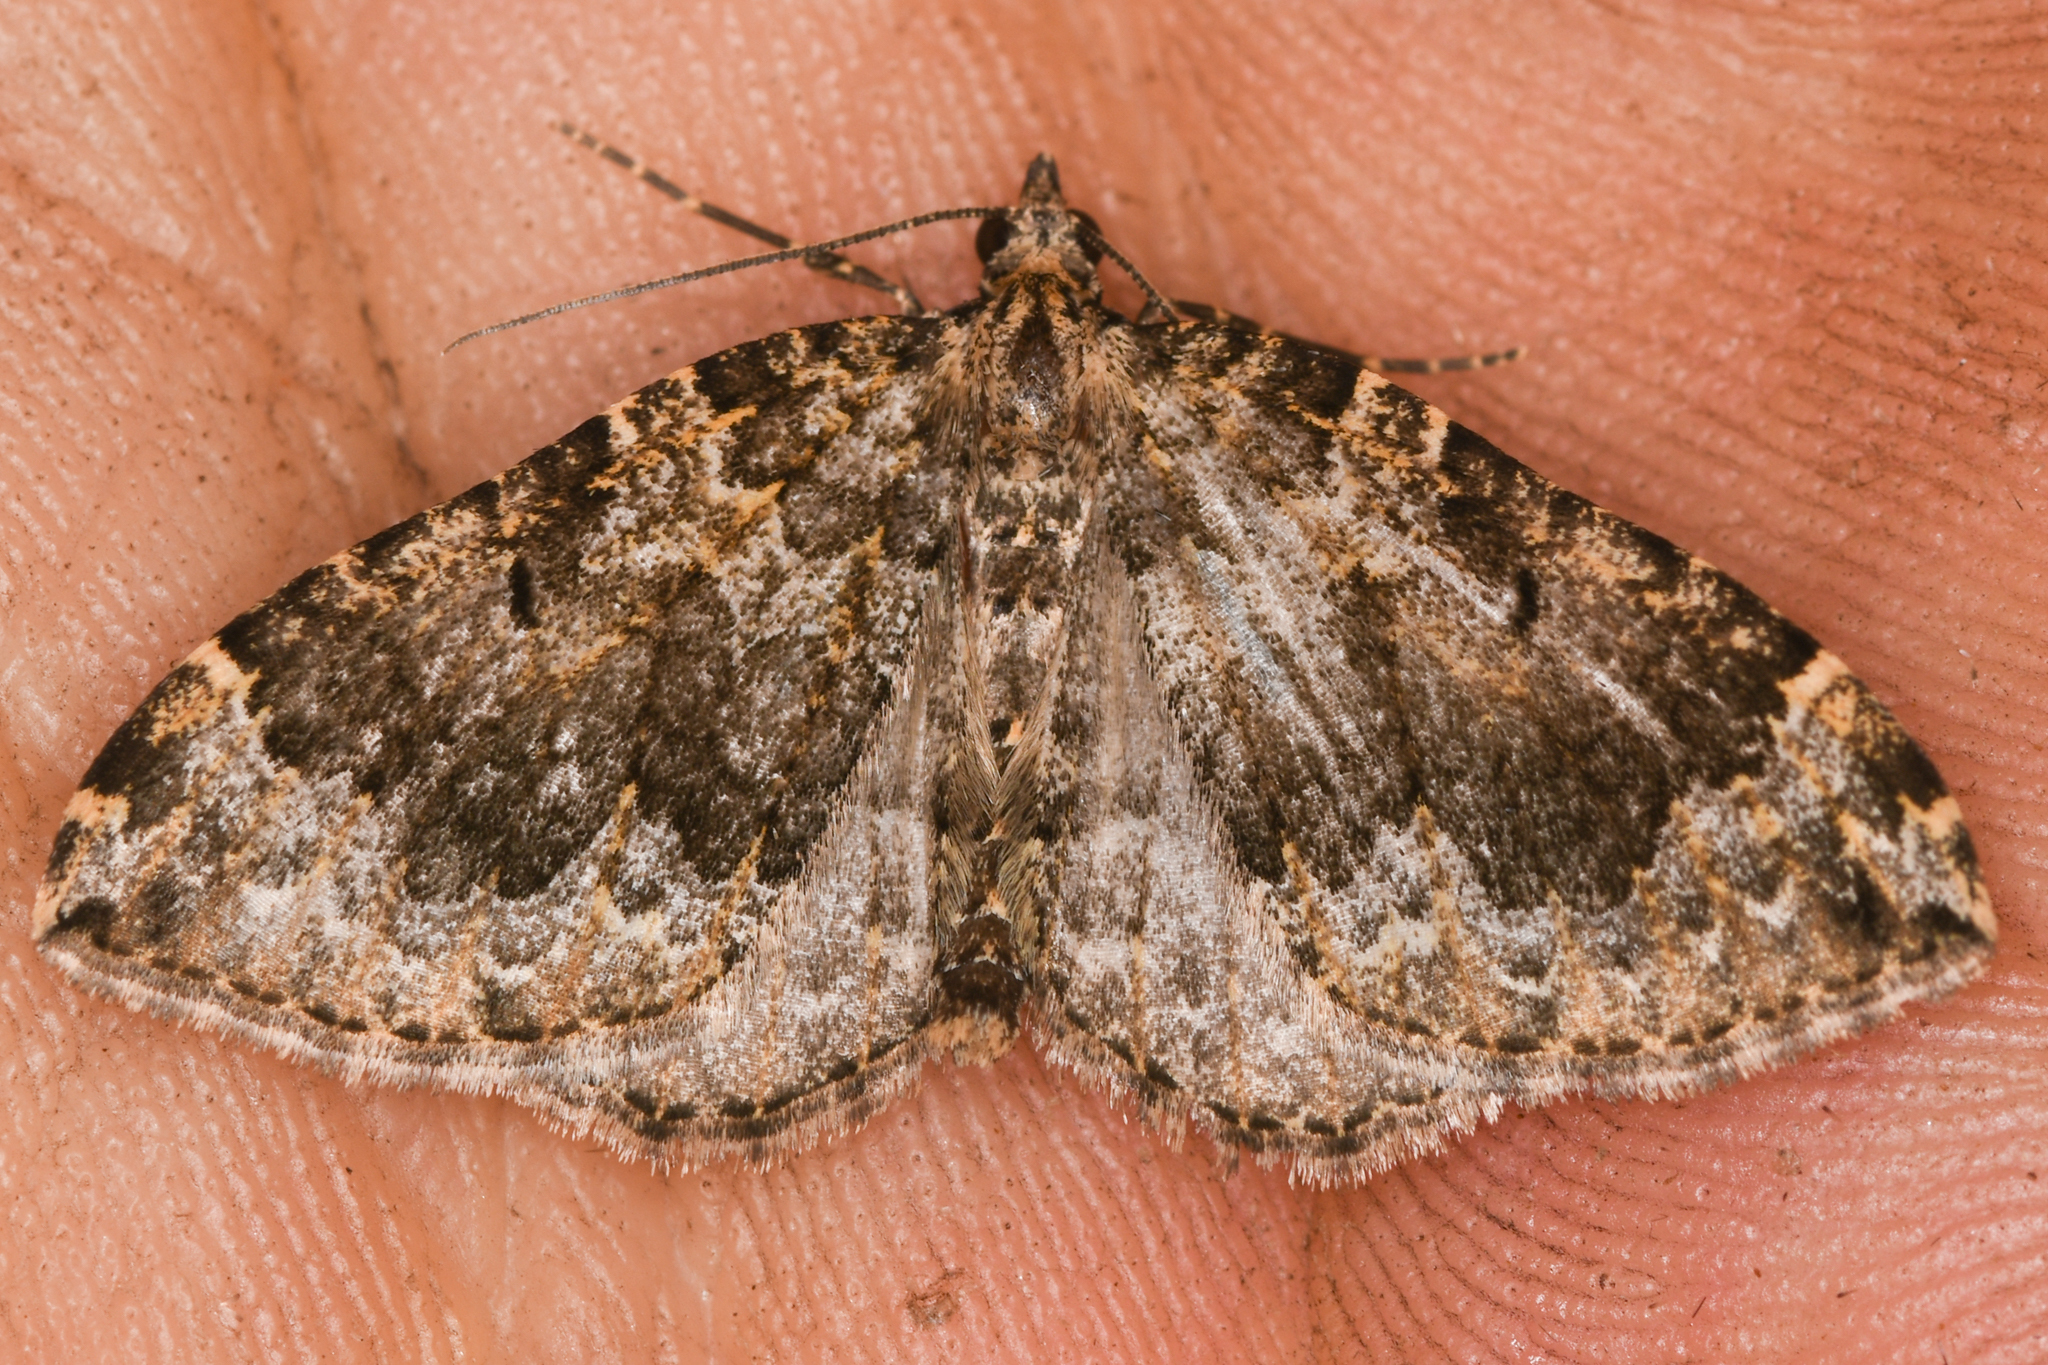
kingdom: Animalia
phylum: Arthropoda
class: Insecta
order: Lepidoptera
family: Geometridae
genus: Eustroma
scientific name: Eustroma semiatrata
